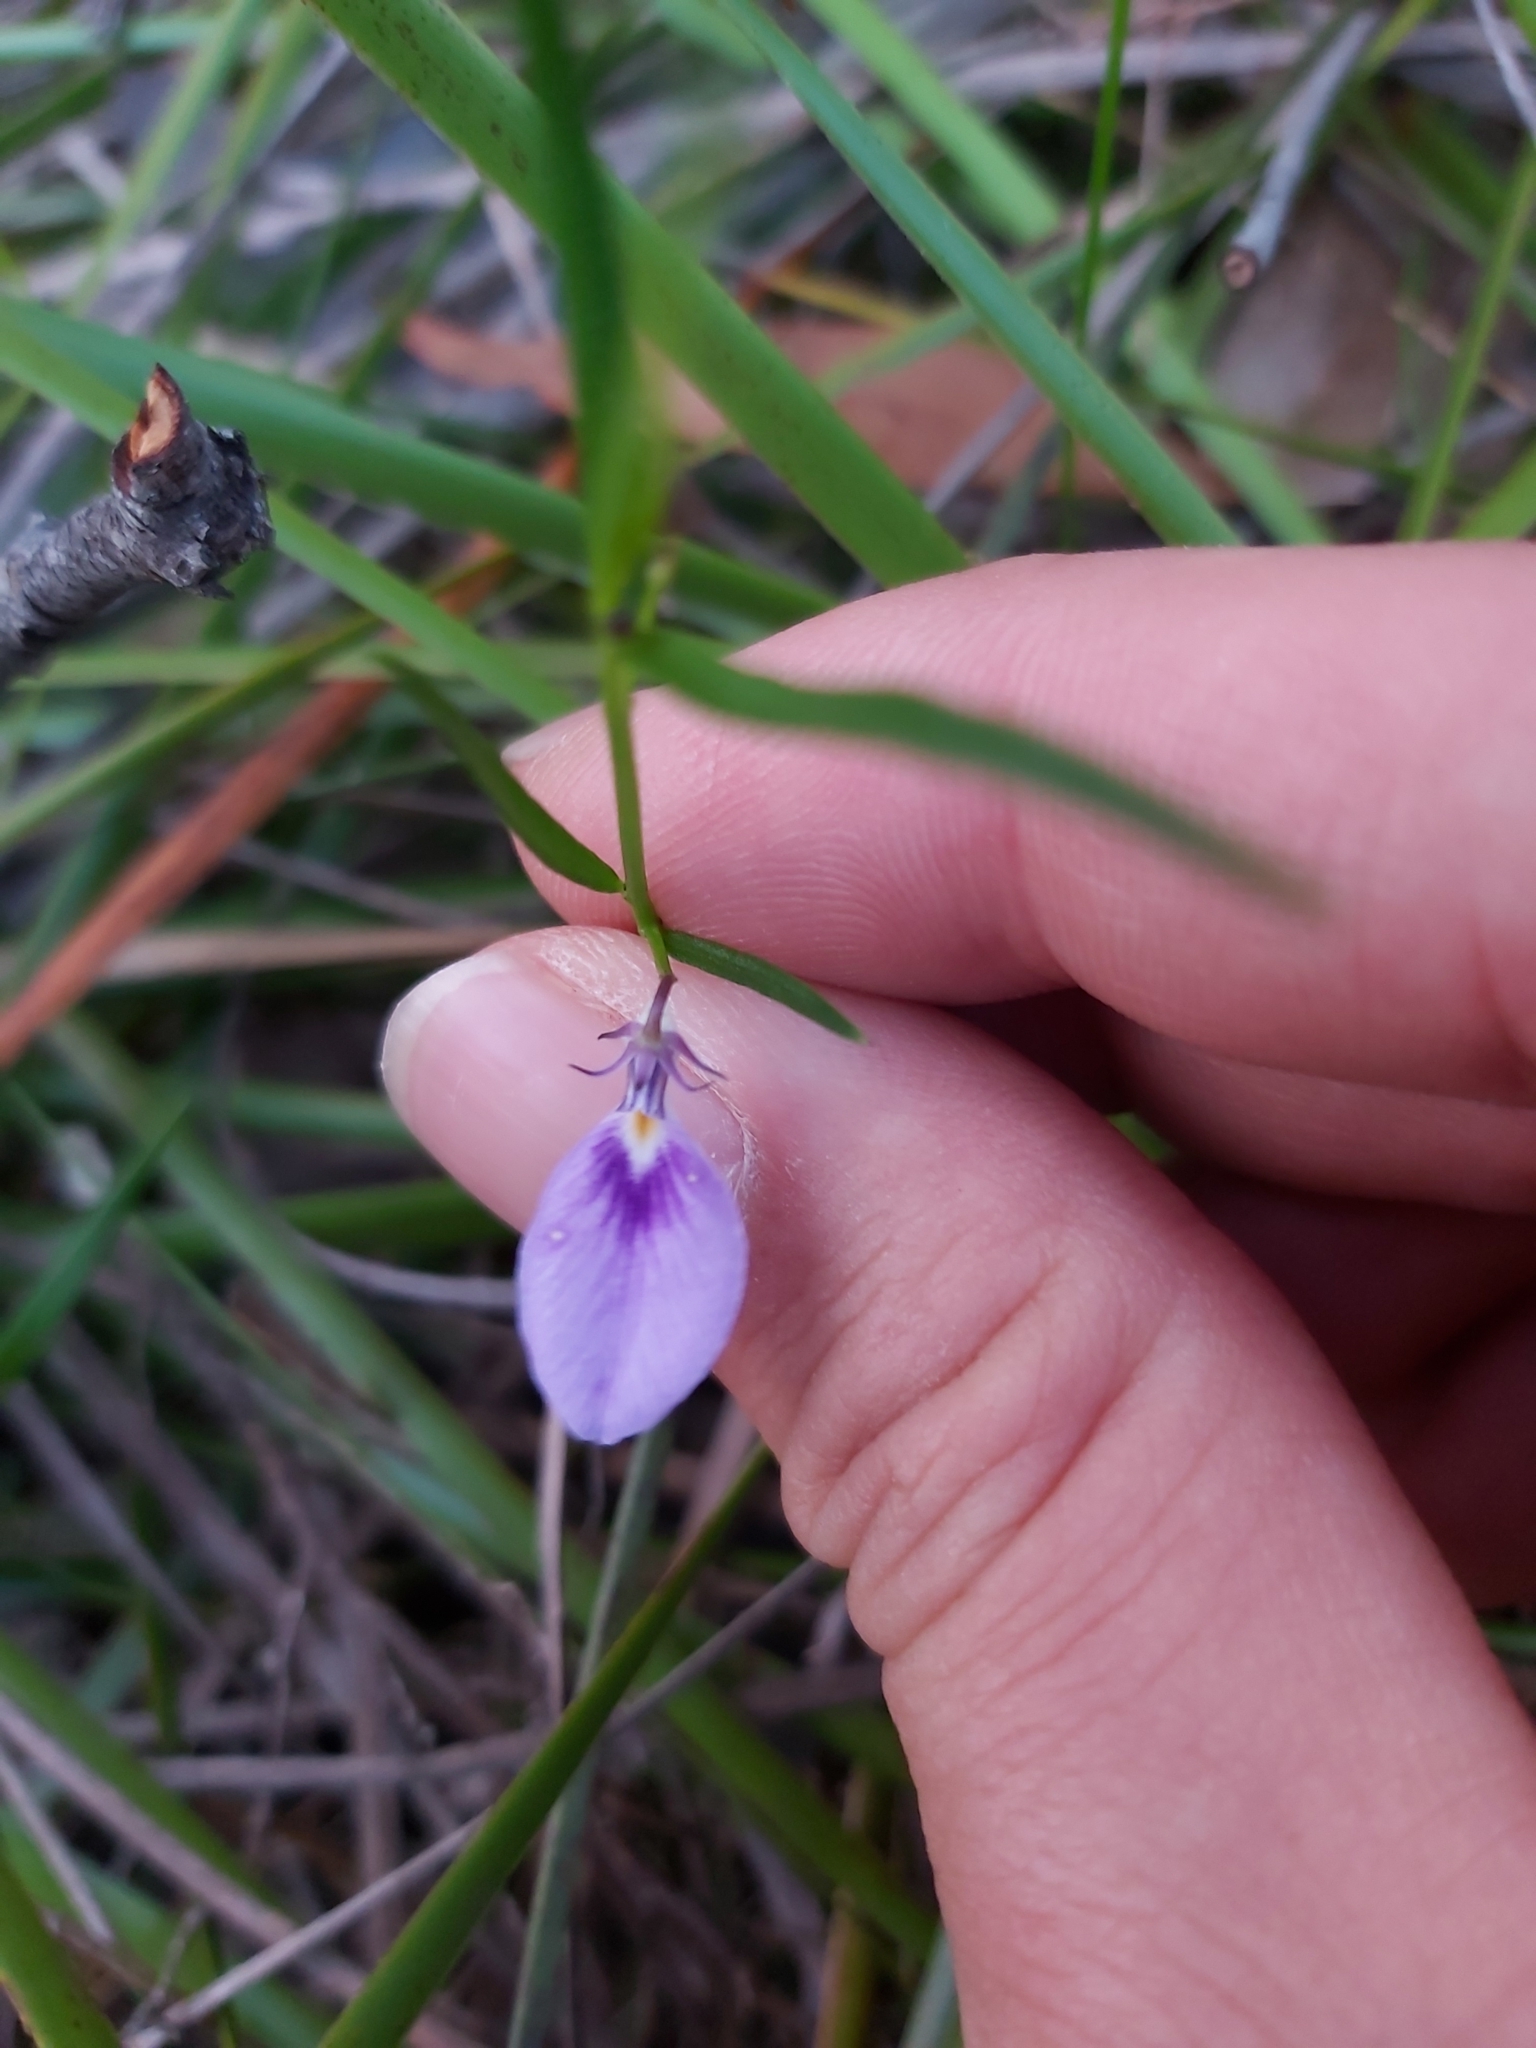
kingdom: Plantae
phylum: Tracheophyta
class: Magnoliopsida
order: Malpighiales
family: Violaceae
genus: Pigea
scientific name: Pigea monopetala
